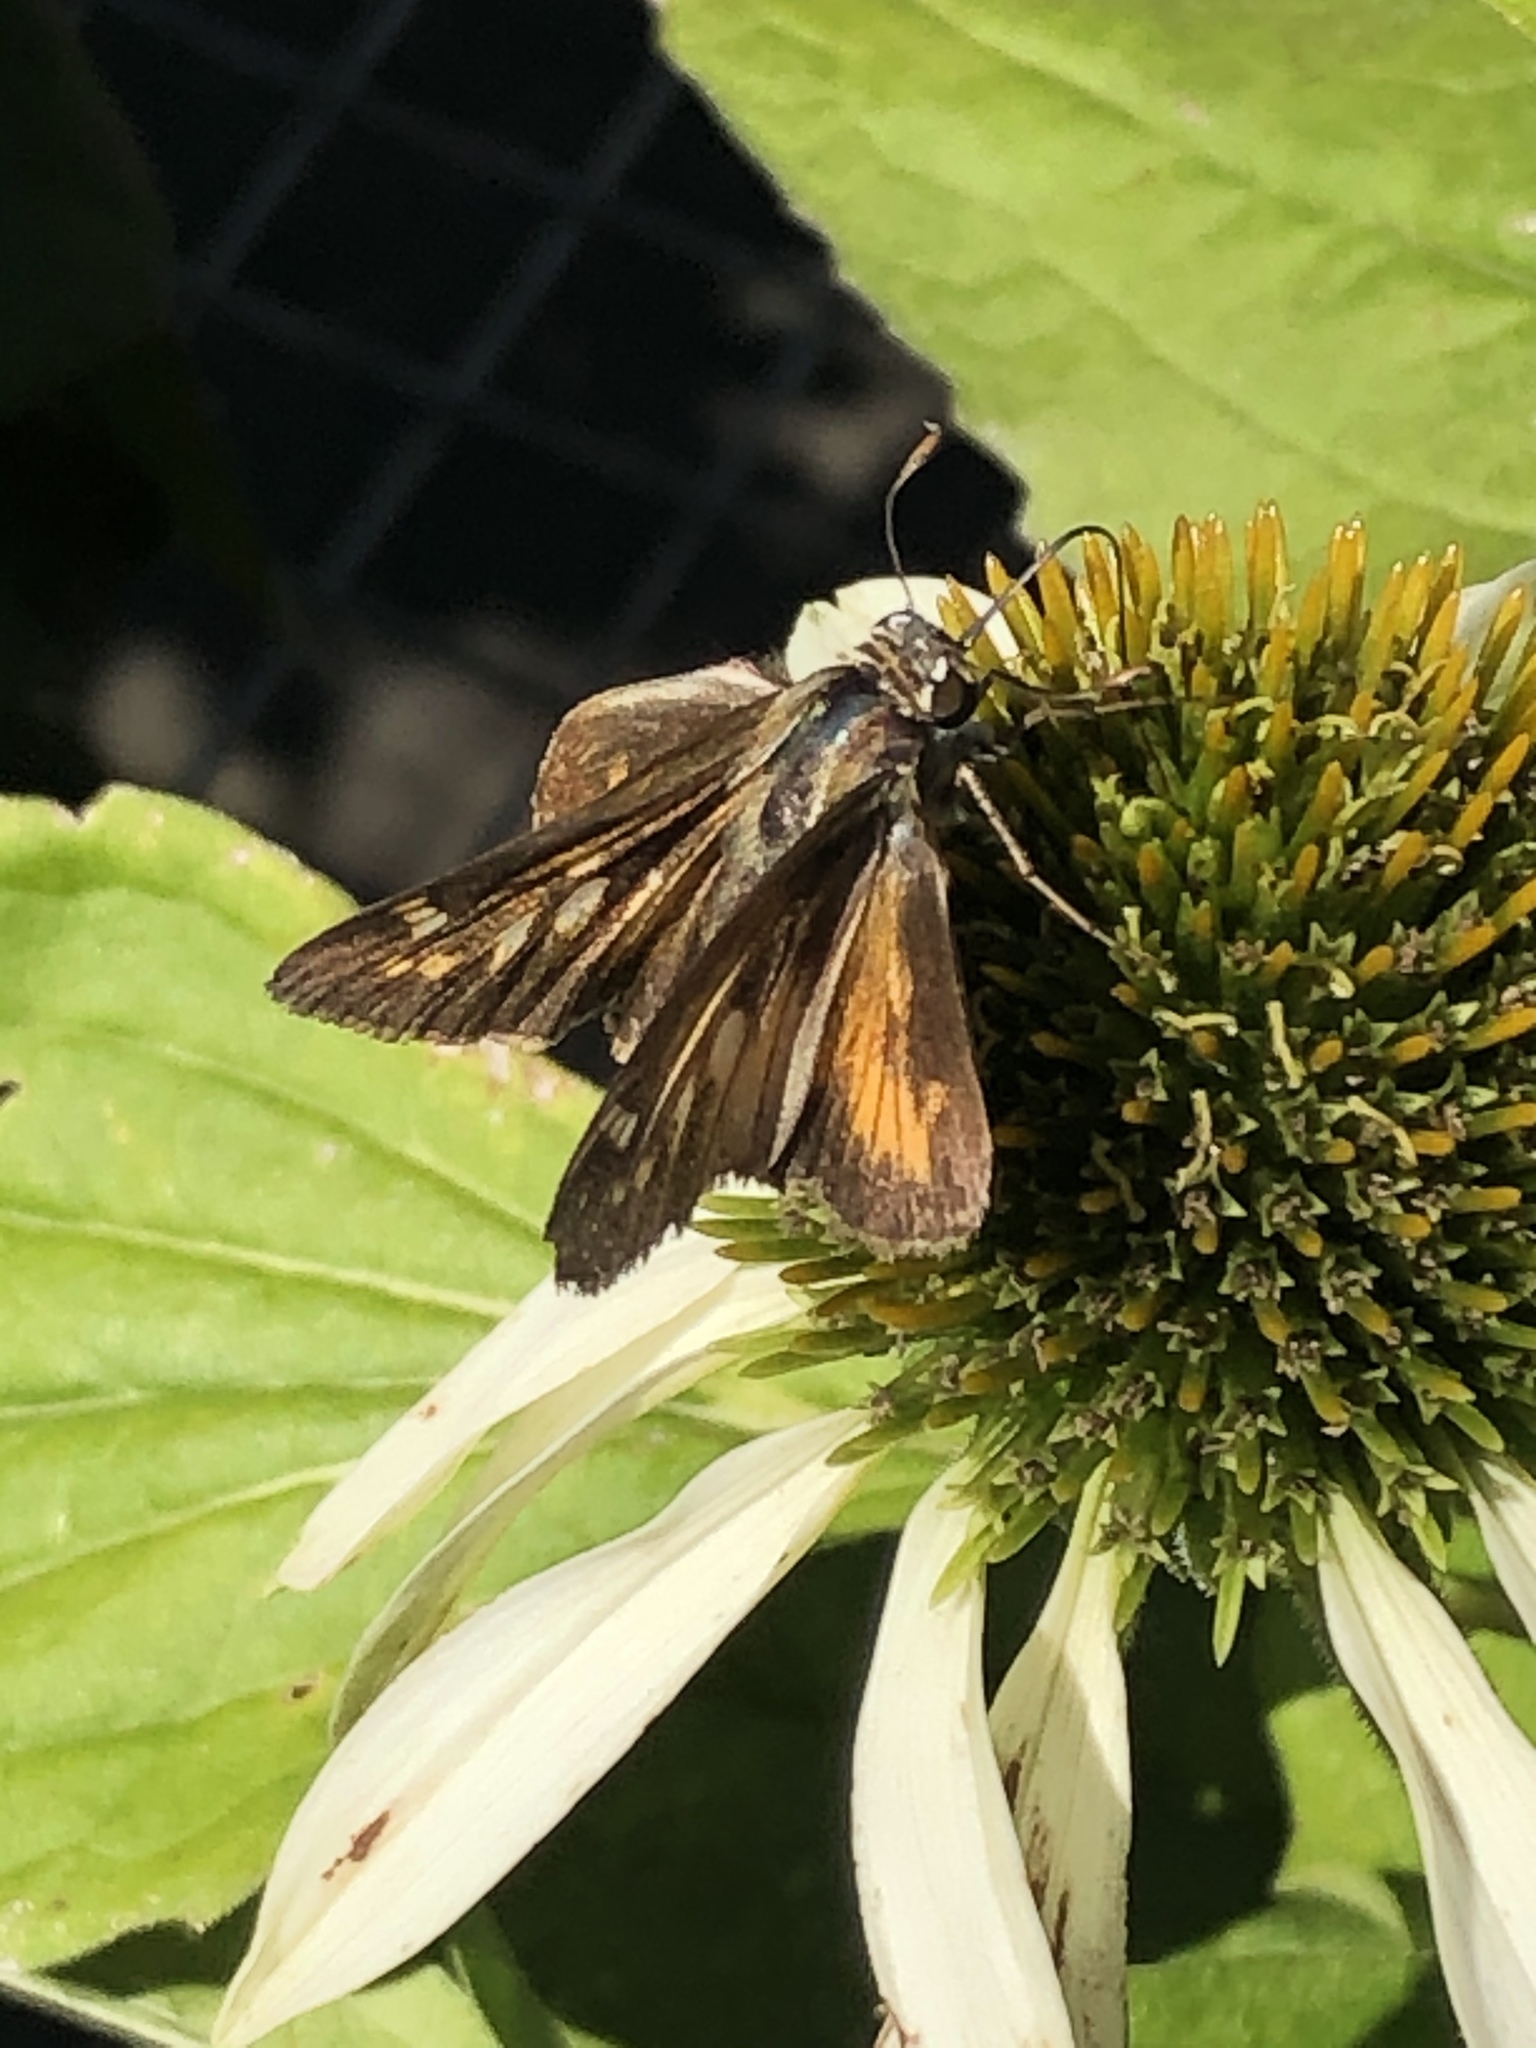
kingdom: Animalia
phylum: Arthropoda
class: Insecta
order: Lepidoptera
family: Hesperiidae
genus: Atalopedes
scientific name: Atalopedes
